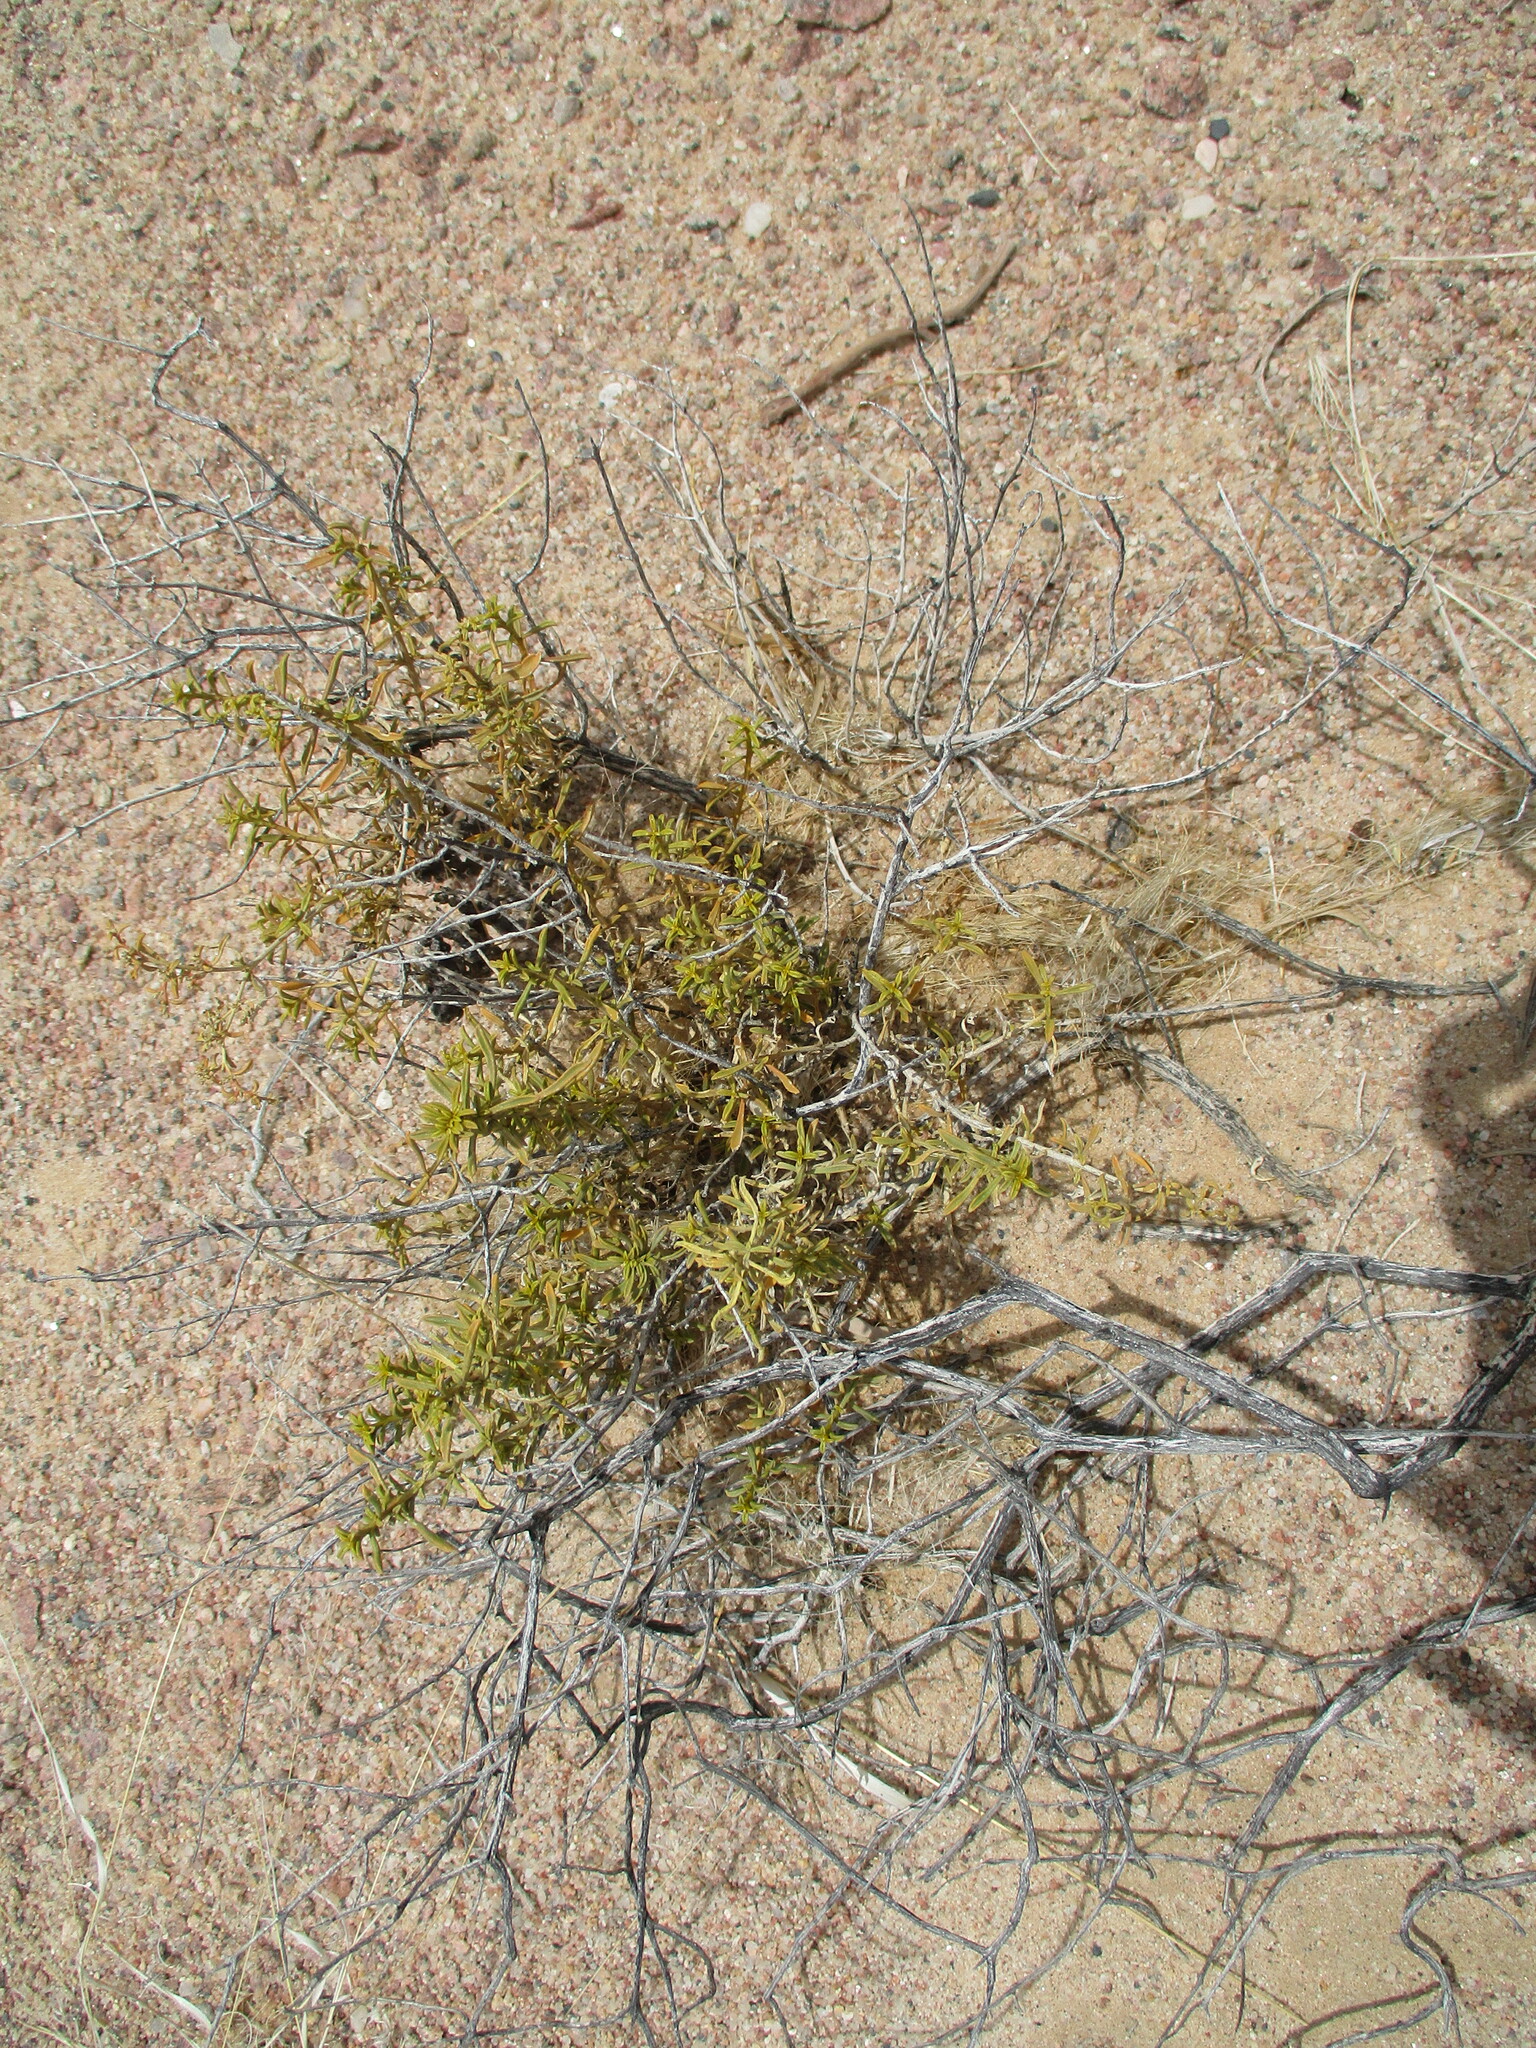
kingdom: Plantae
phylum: Tracheophyta
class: Magnoliopsida
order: Caryophyllales
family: Aizoaceae
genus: Aizoon
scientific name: Aizoon africanum
